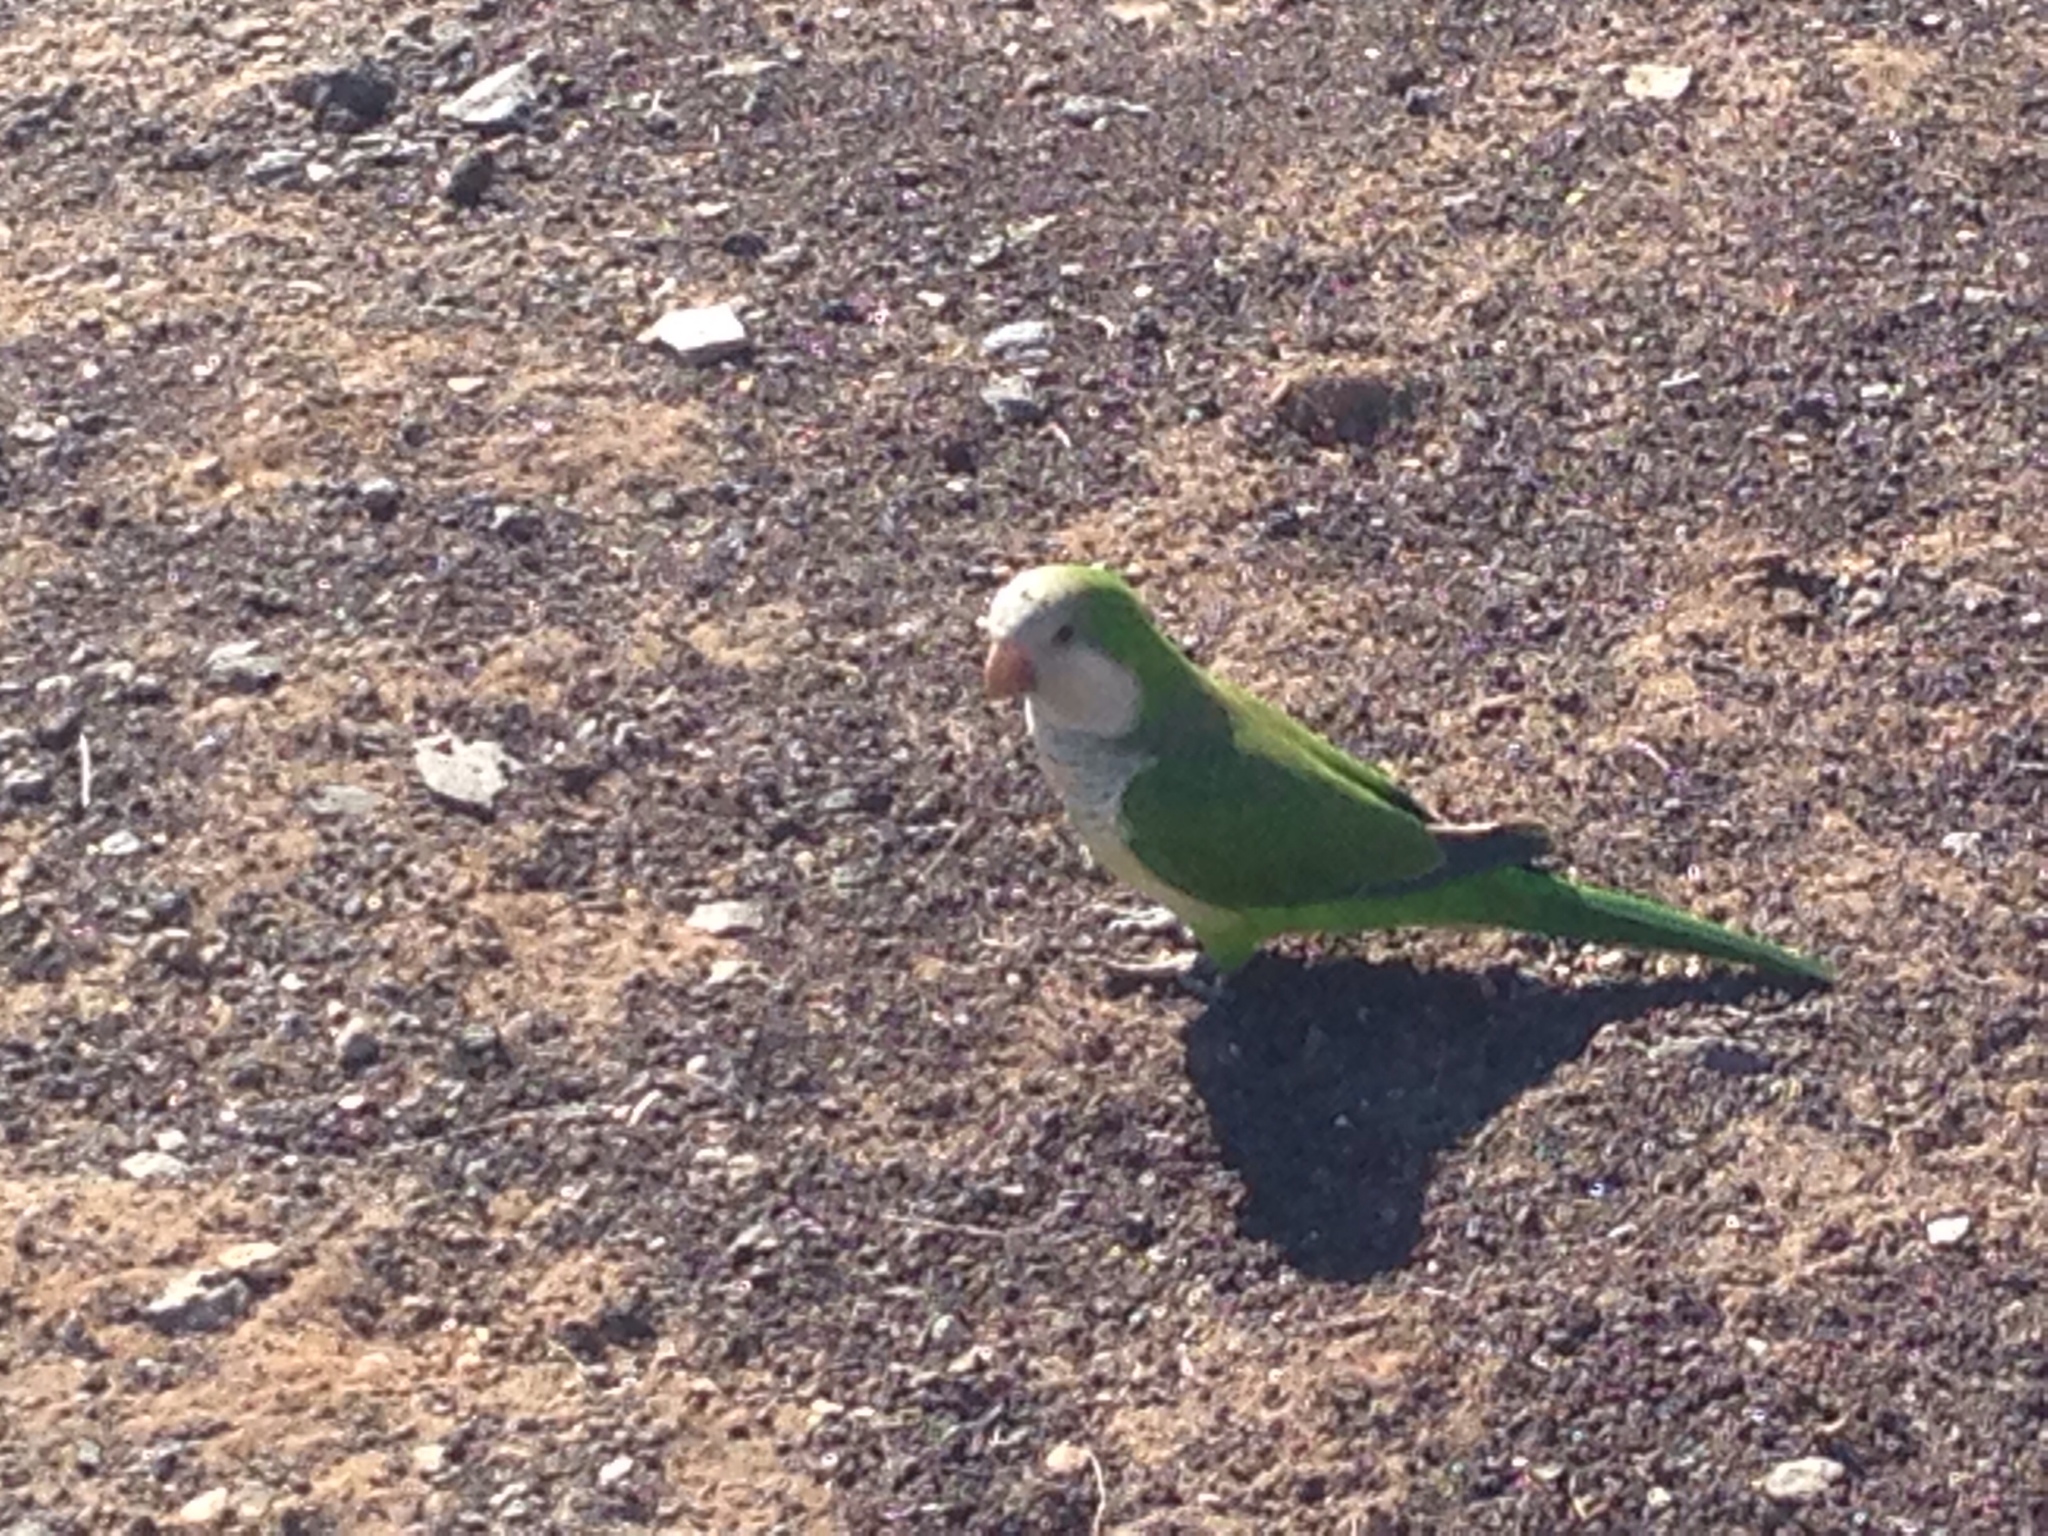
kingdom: Animalia
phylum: Chordata
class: Aves
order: Psittaciformes
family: Psittacidae
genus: Myiopsitta
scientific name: Myiopsitta monachus
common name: Monk parakeet
